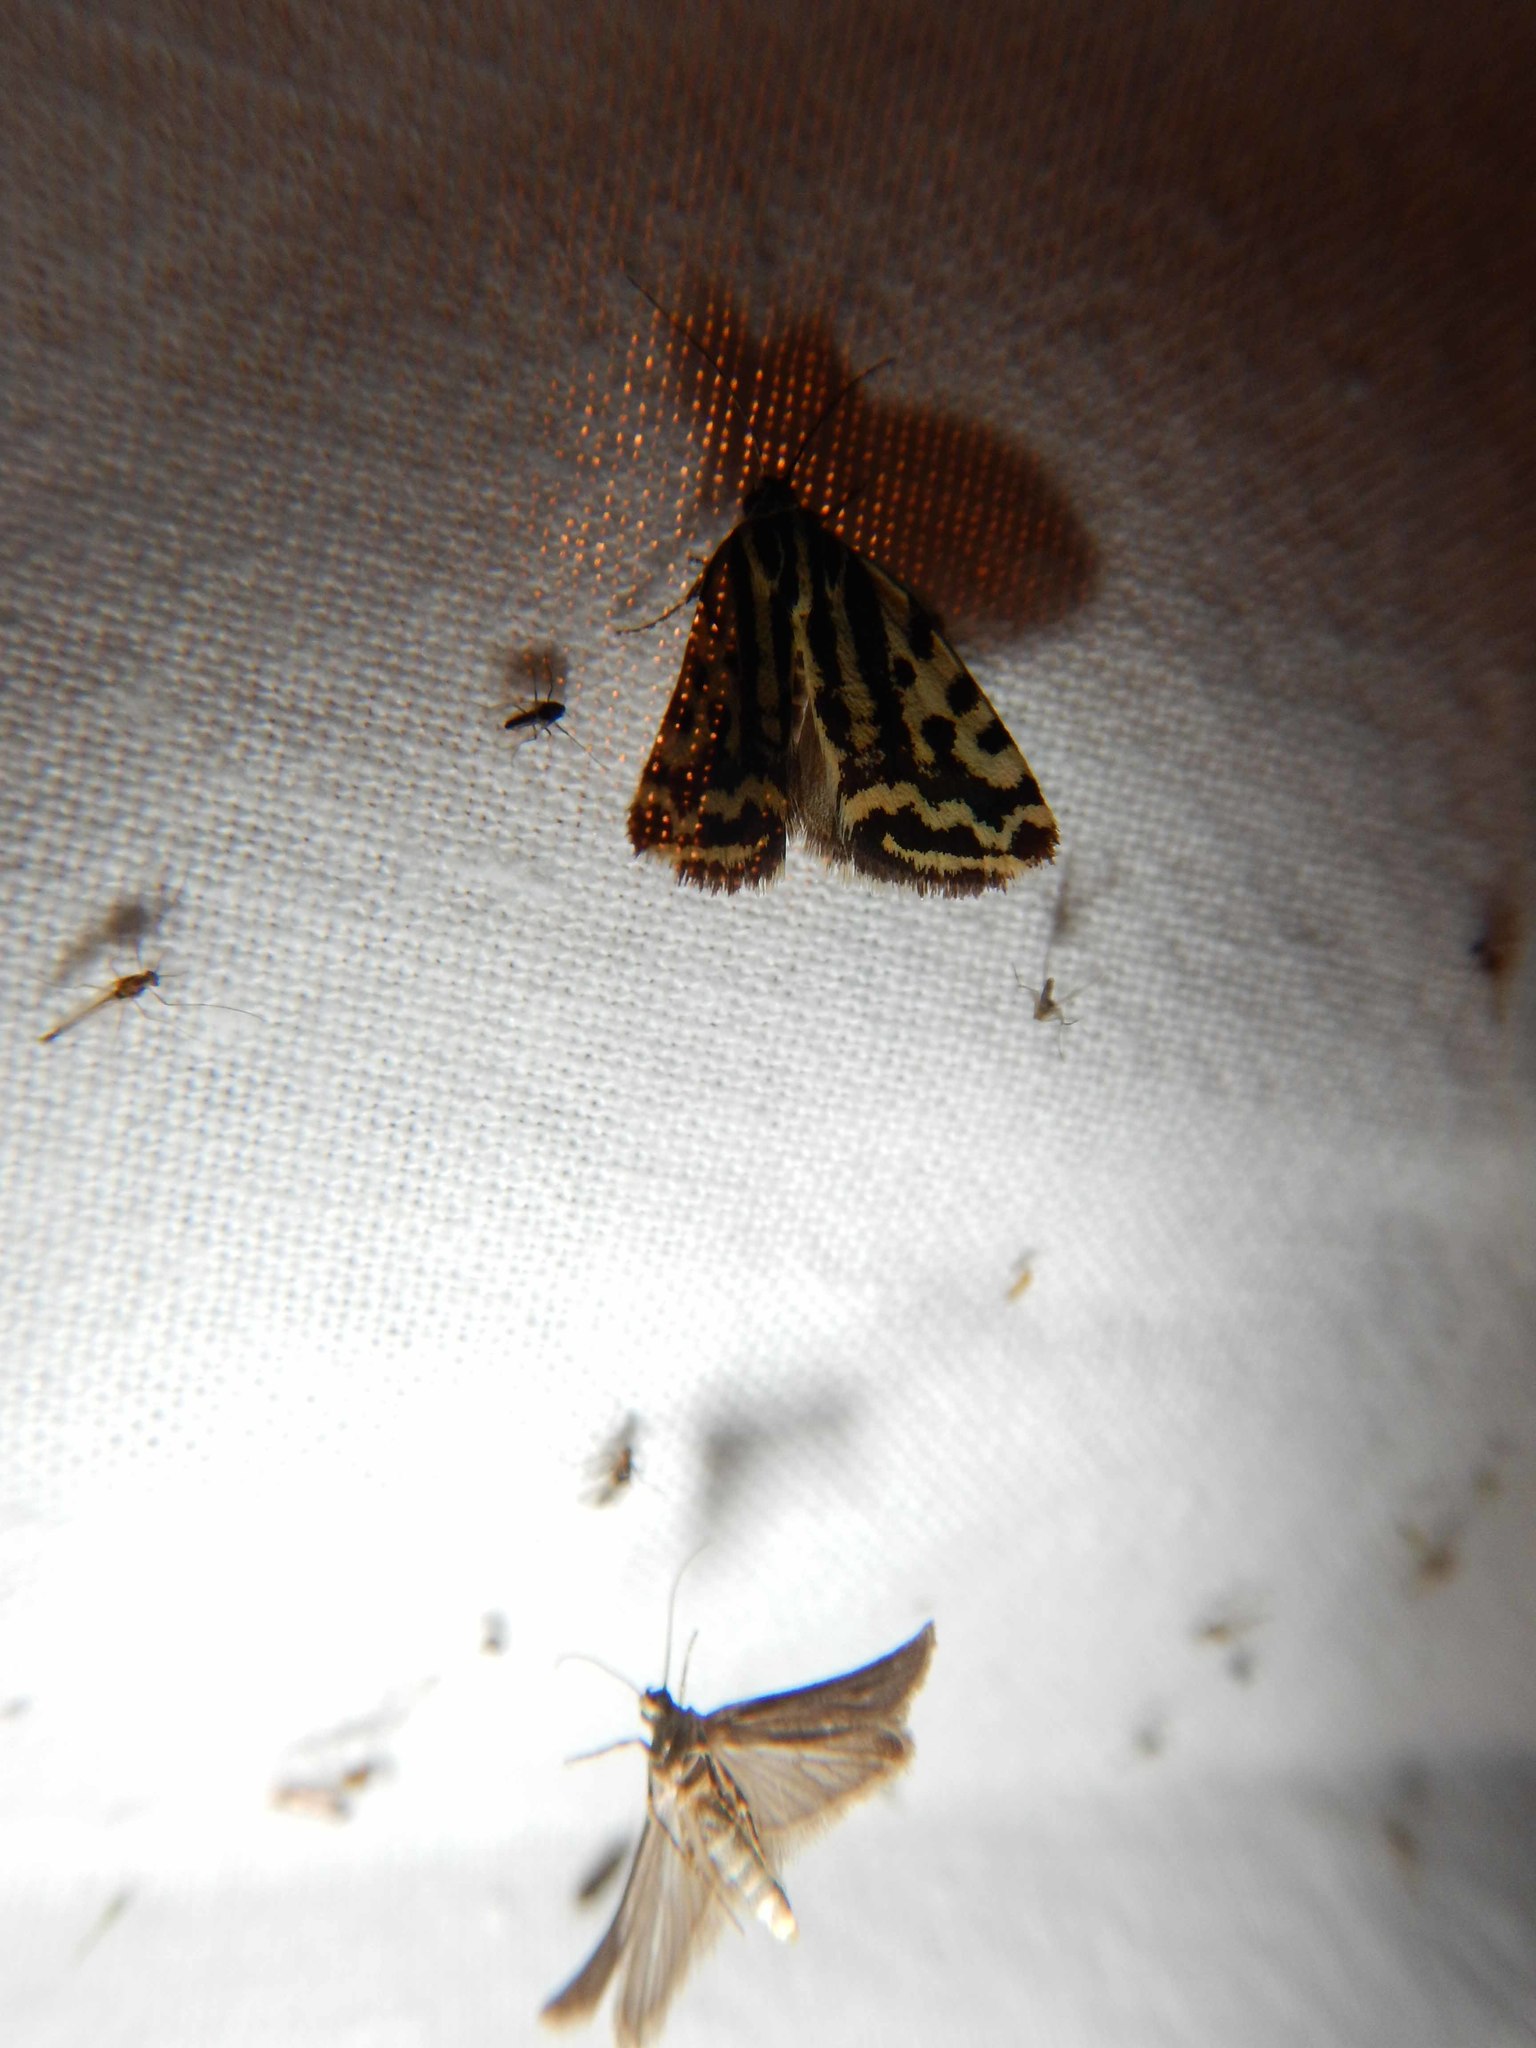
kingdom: Animalia
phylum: Arthropoda
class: Insecta
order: Lepidoptera
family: Noctuidae
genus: Acontia
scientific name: Acontia trabealis
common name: Spotted sulphur
